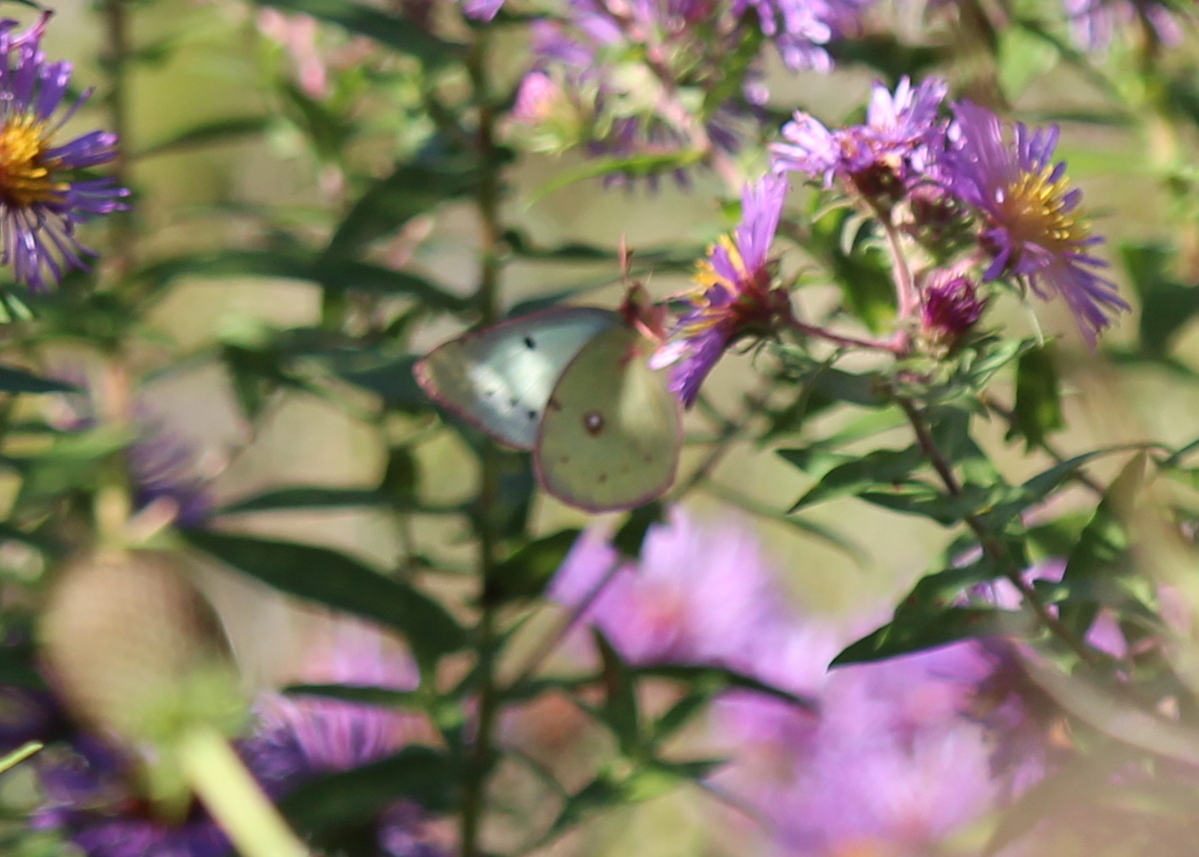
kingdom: Animalia
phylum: Arthropoda
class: Insecta
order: Lepidoptera
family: Pieridae
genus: Colias
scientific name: Colias philodice
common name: Clouded sulphur
